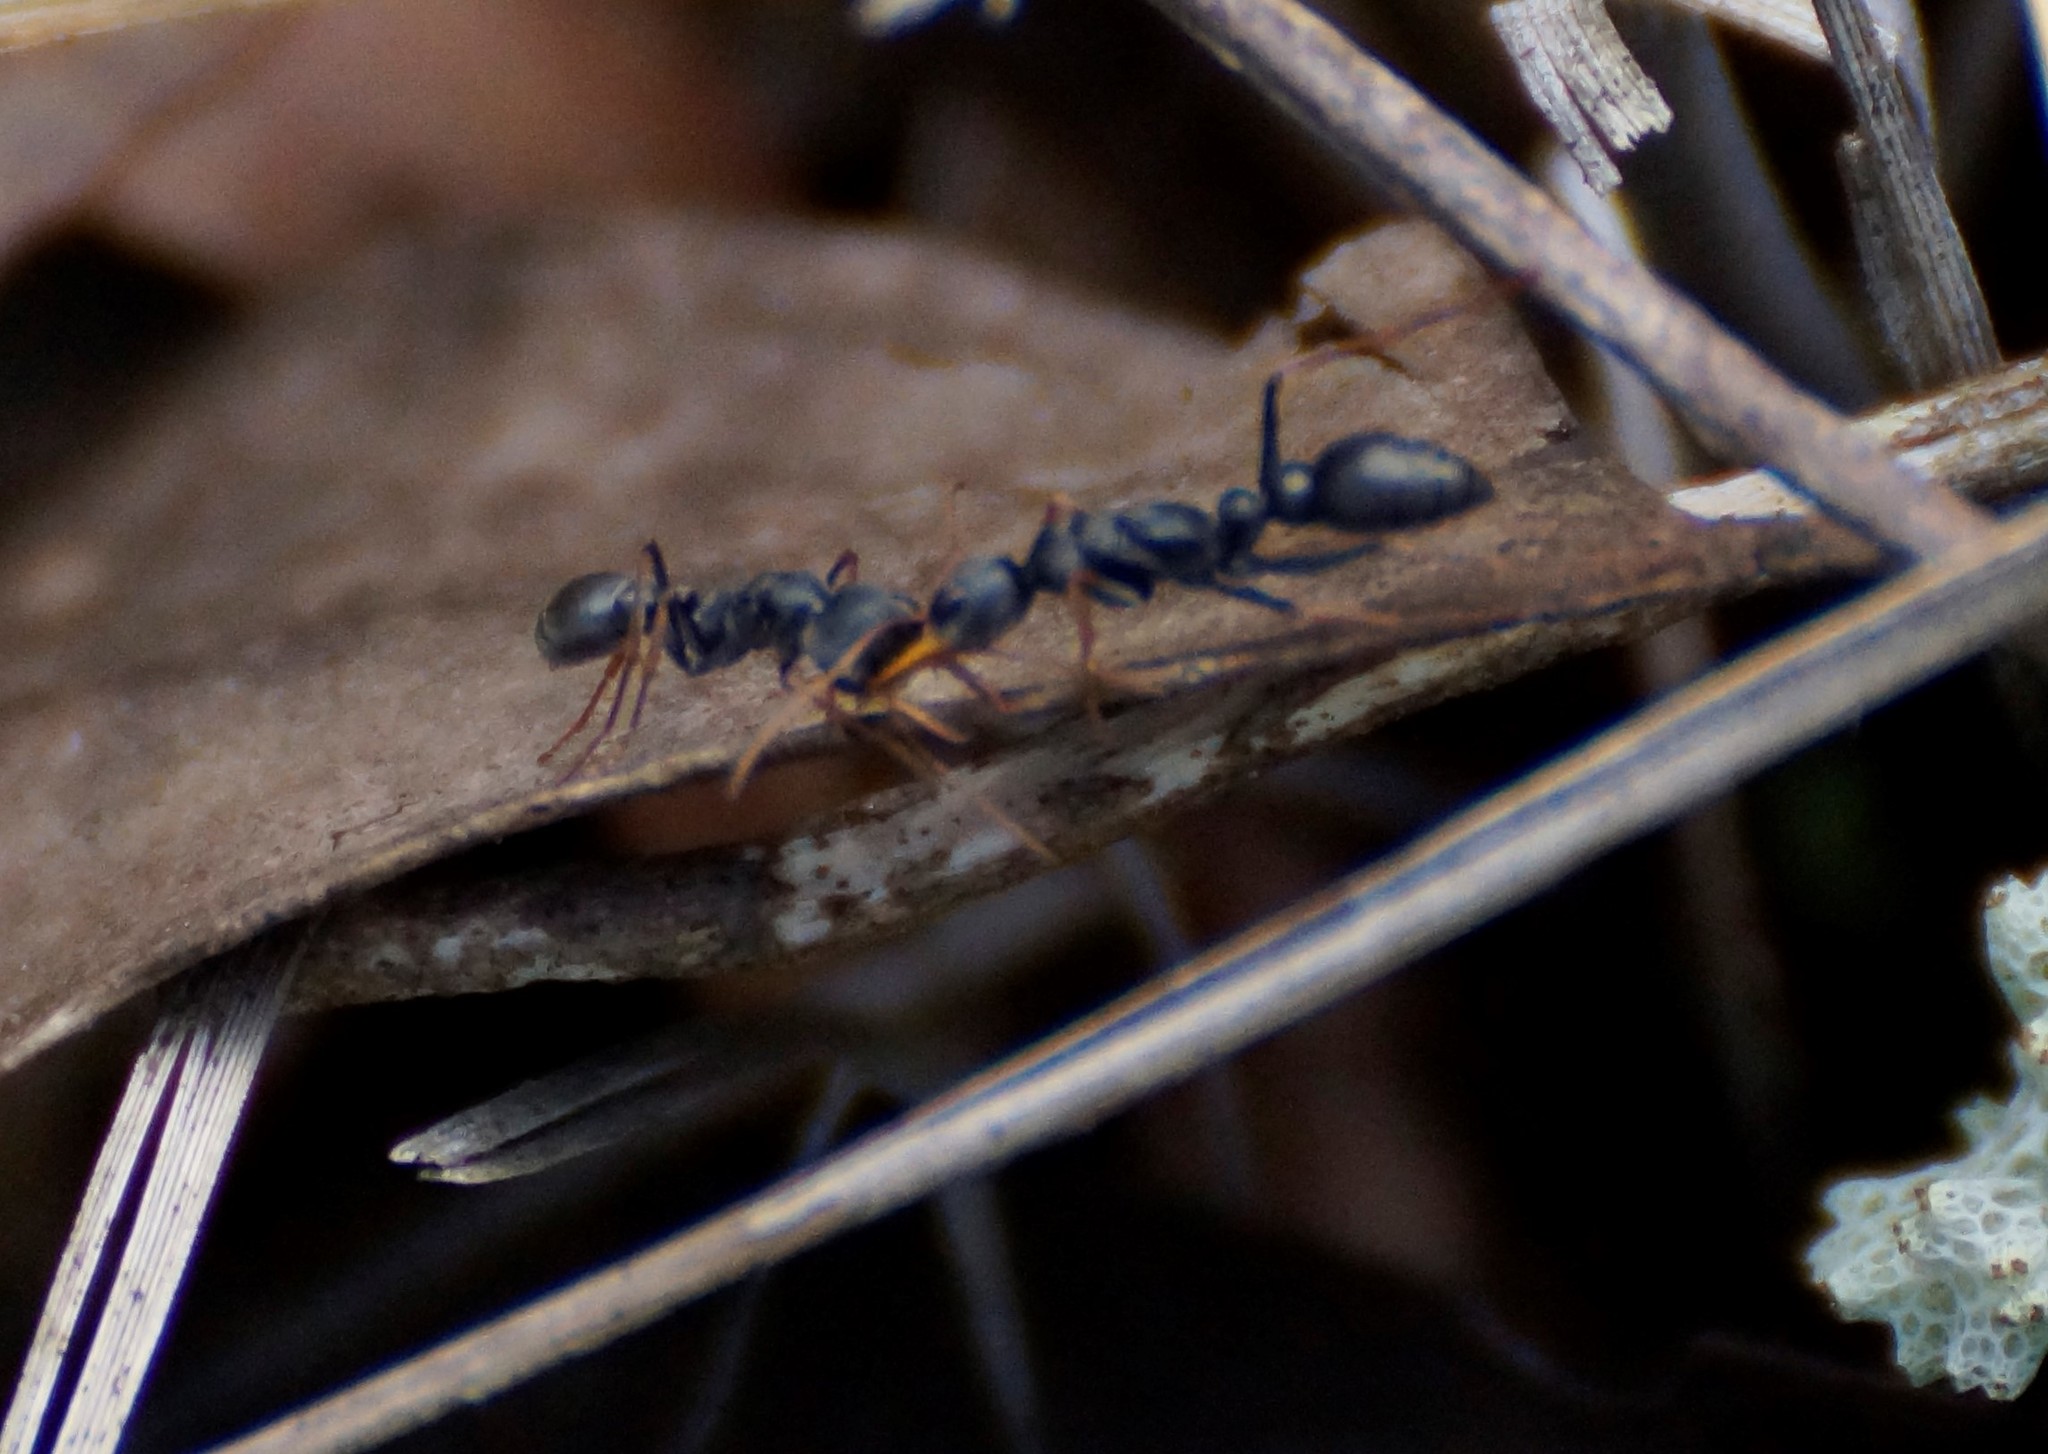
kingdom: Animalia
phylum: Arthropoda
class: Insecta
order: Hymenoptera
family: Formicidae
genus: Myrmecia
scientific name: Myrmecia pilosula
